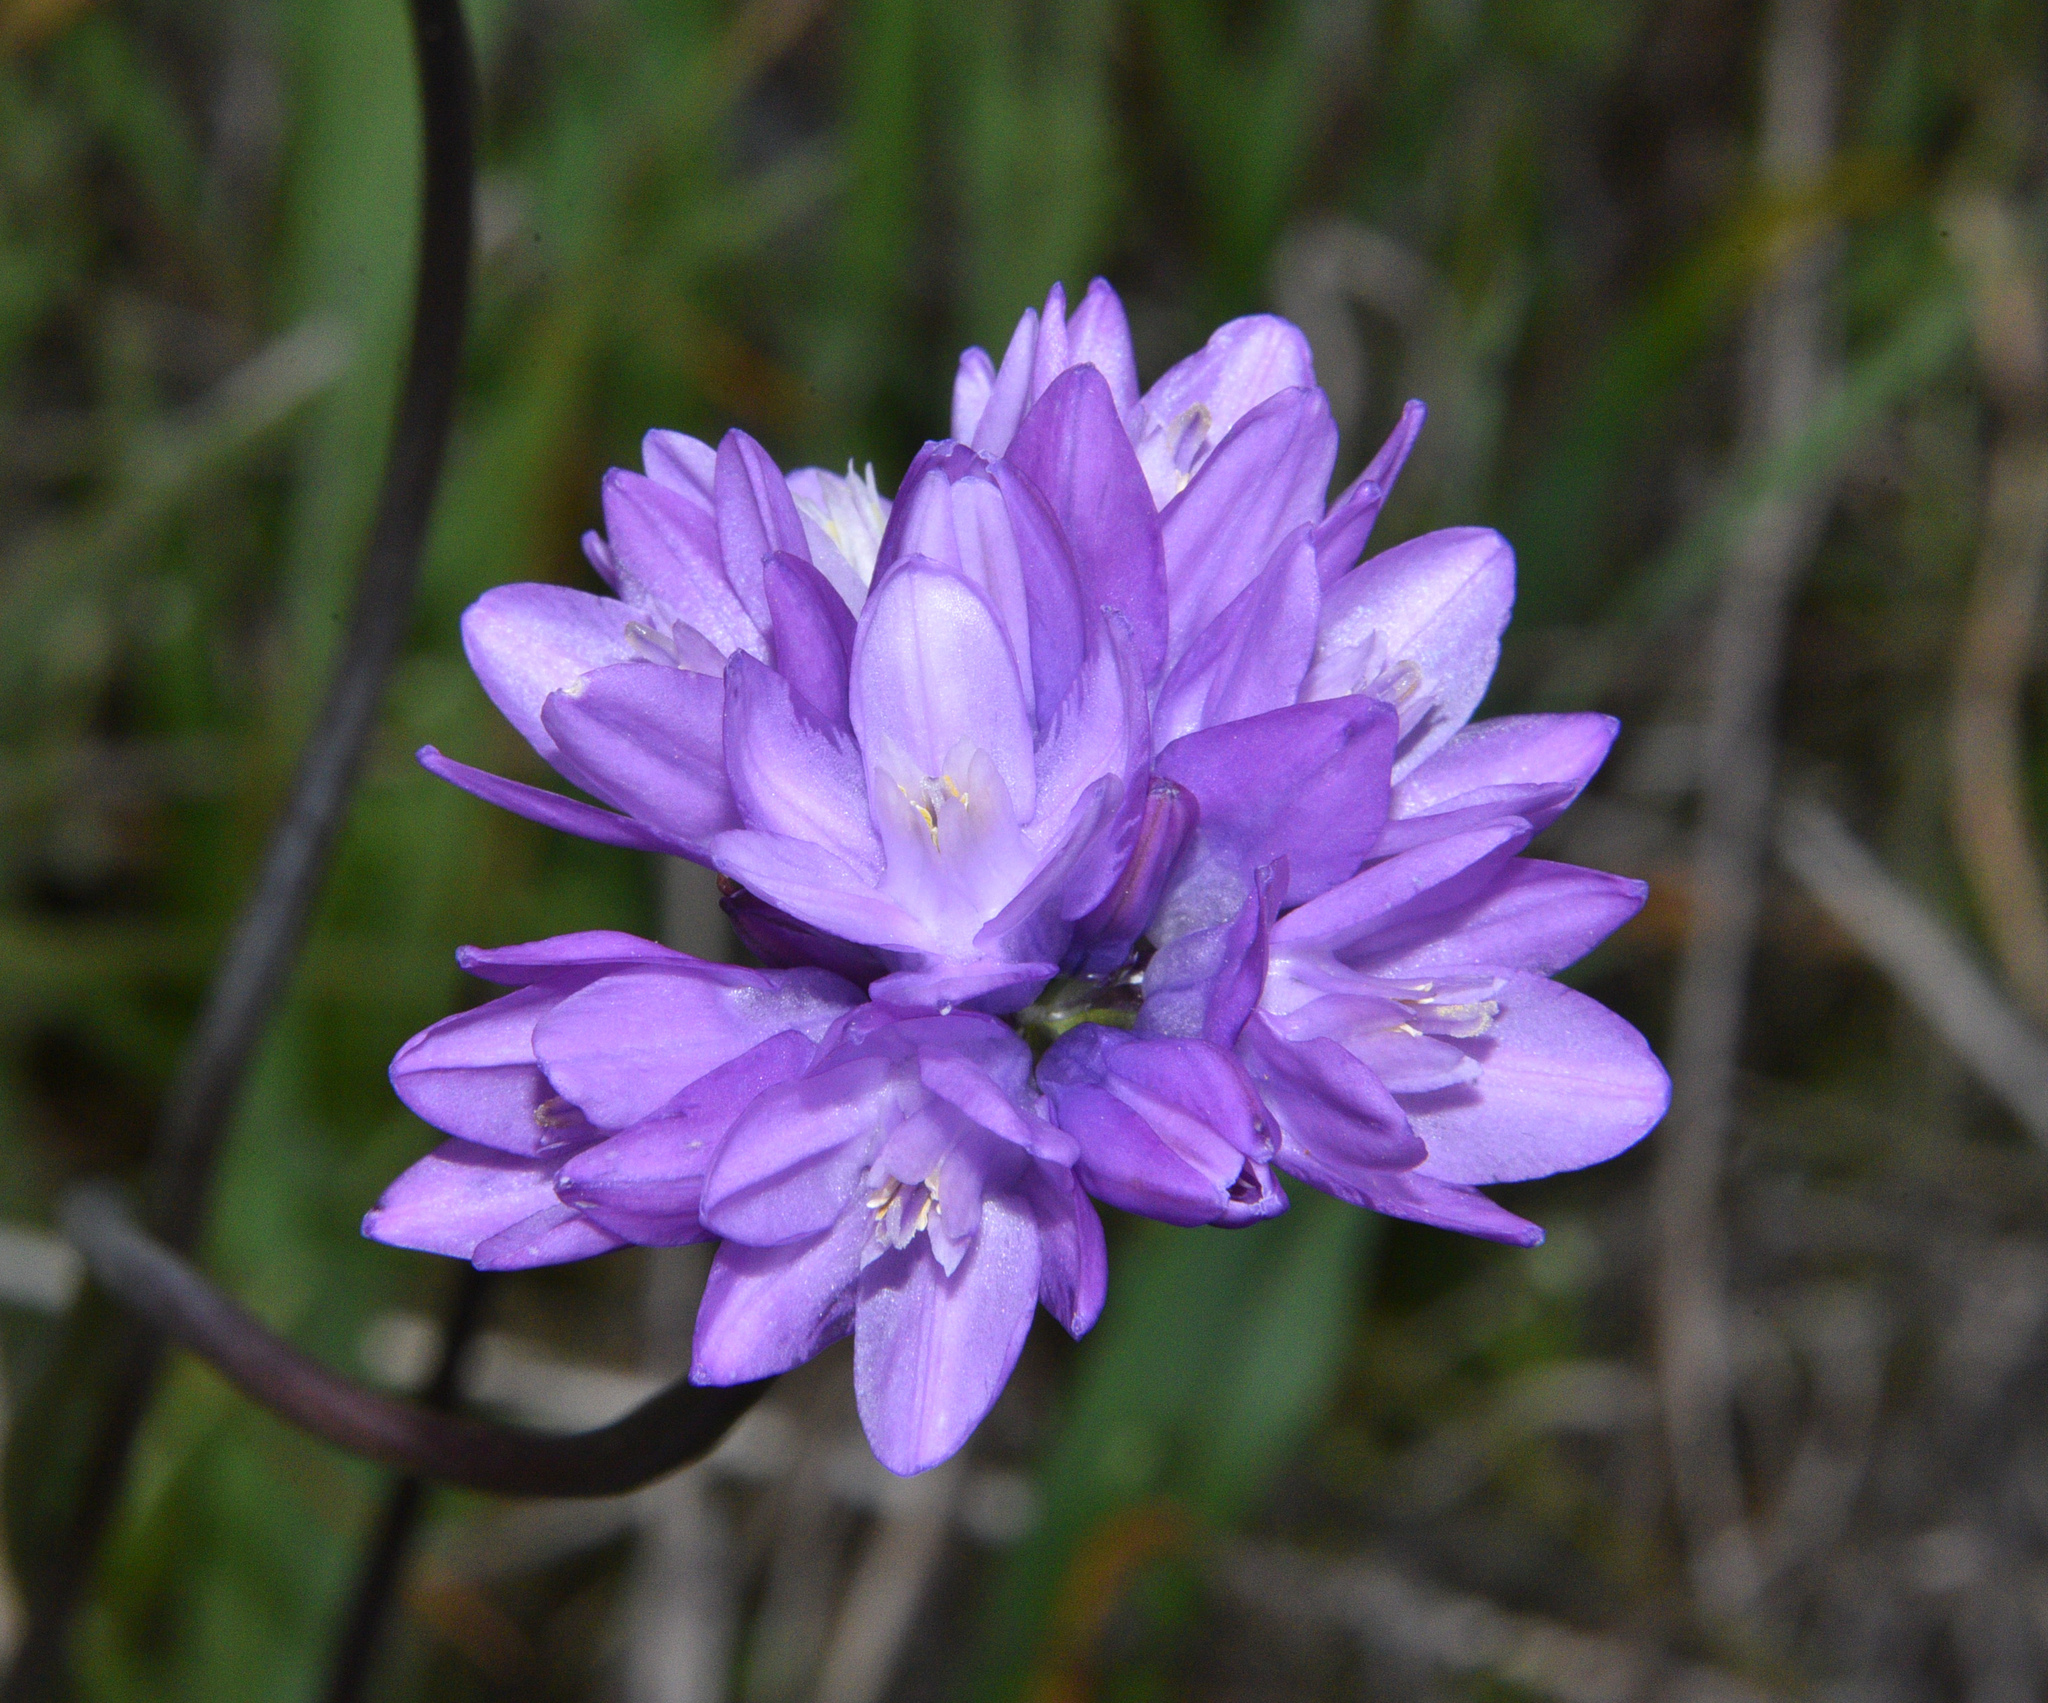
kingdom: Plantae
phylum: Tracheophyta
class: Liliopsida
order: Asparagales
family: Asparagaceae
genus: Dipterostemon
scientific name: Dipterostemon capitatus
